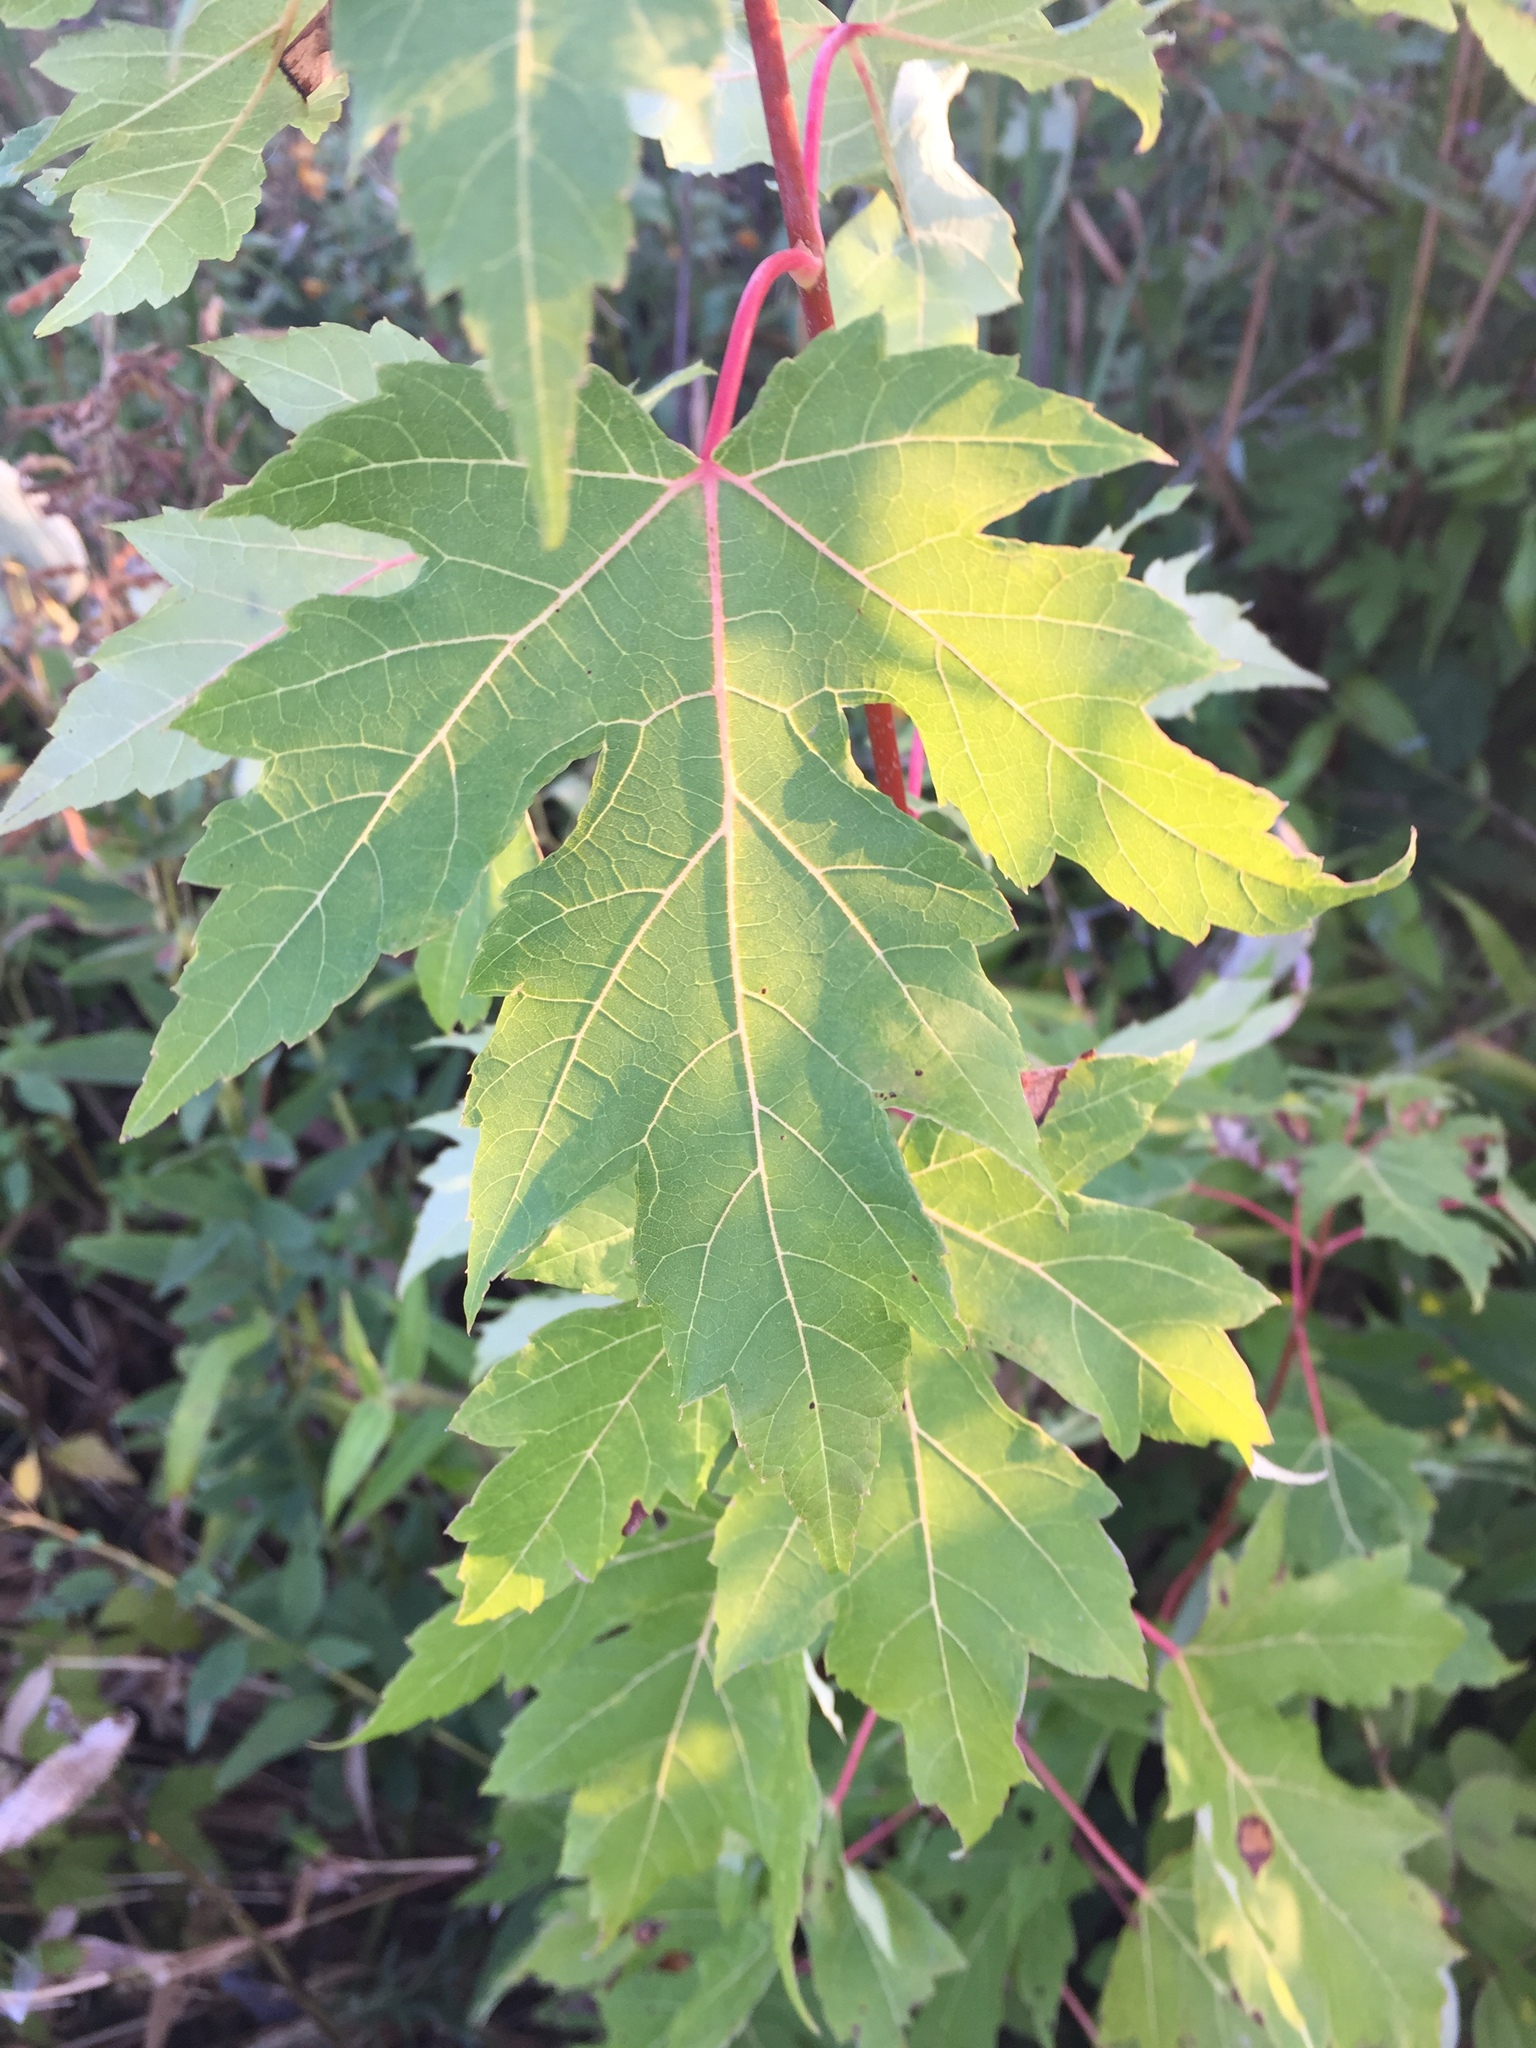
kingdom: Plantae
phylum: Tracheophyta
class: Magnoliopsida
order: Sapindales
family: Sapindaceae
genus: Acer
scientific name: Acer saccharinum
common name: Silver maple
